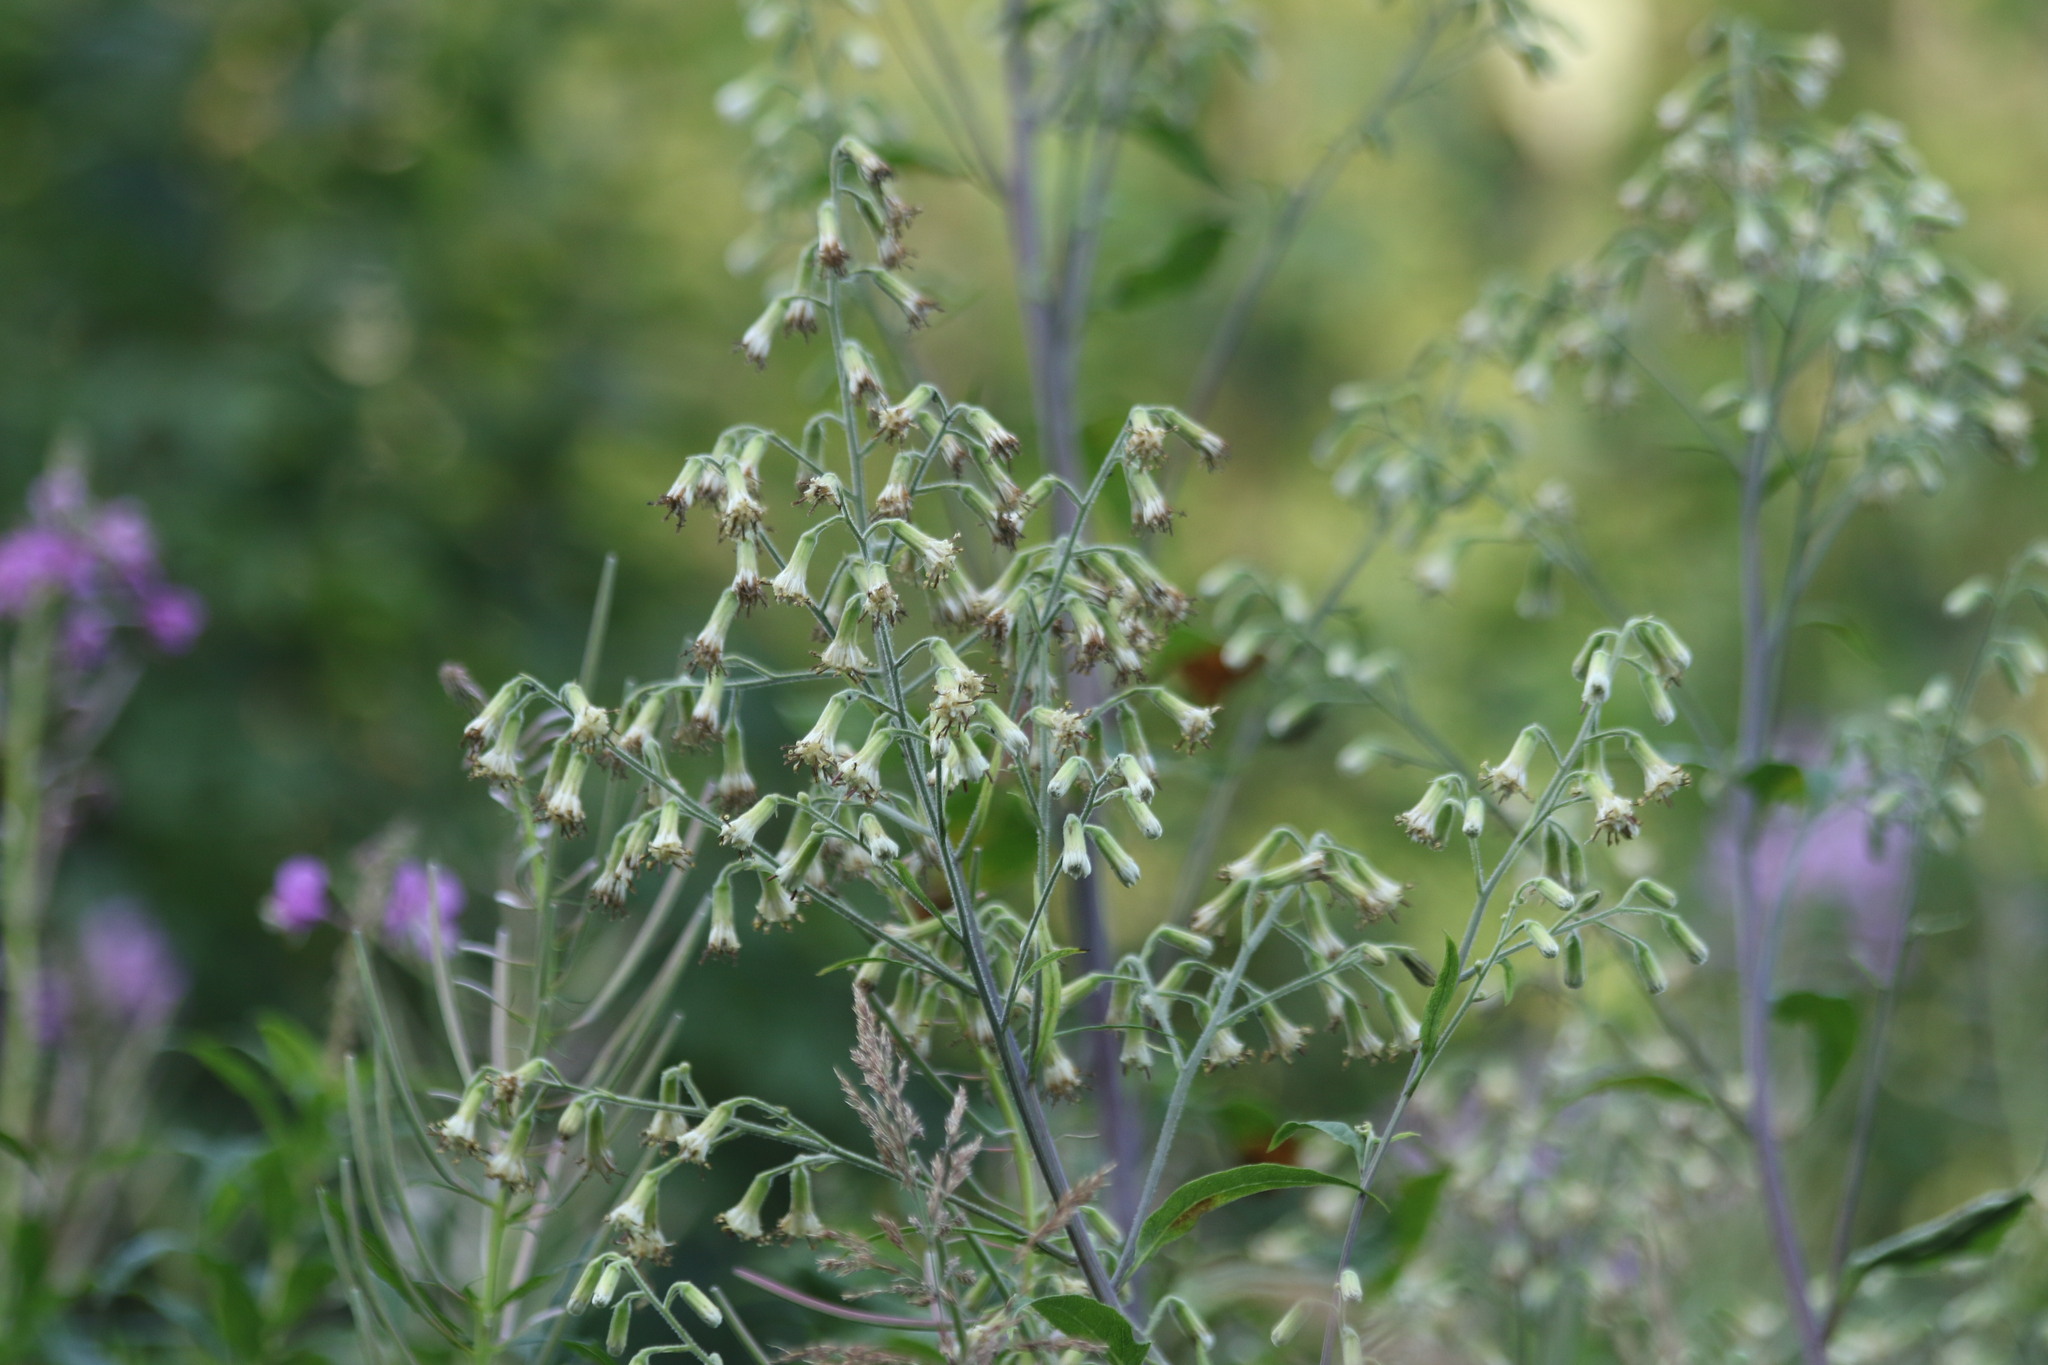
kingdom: Plantae
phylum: Tracheophyta
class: Magnoliopsida
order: Asterales
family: Asteraceae
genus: Parasenecio
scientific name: Parasenecio hastatus
